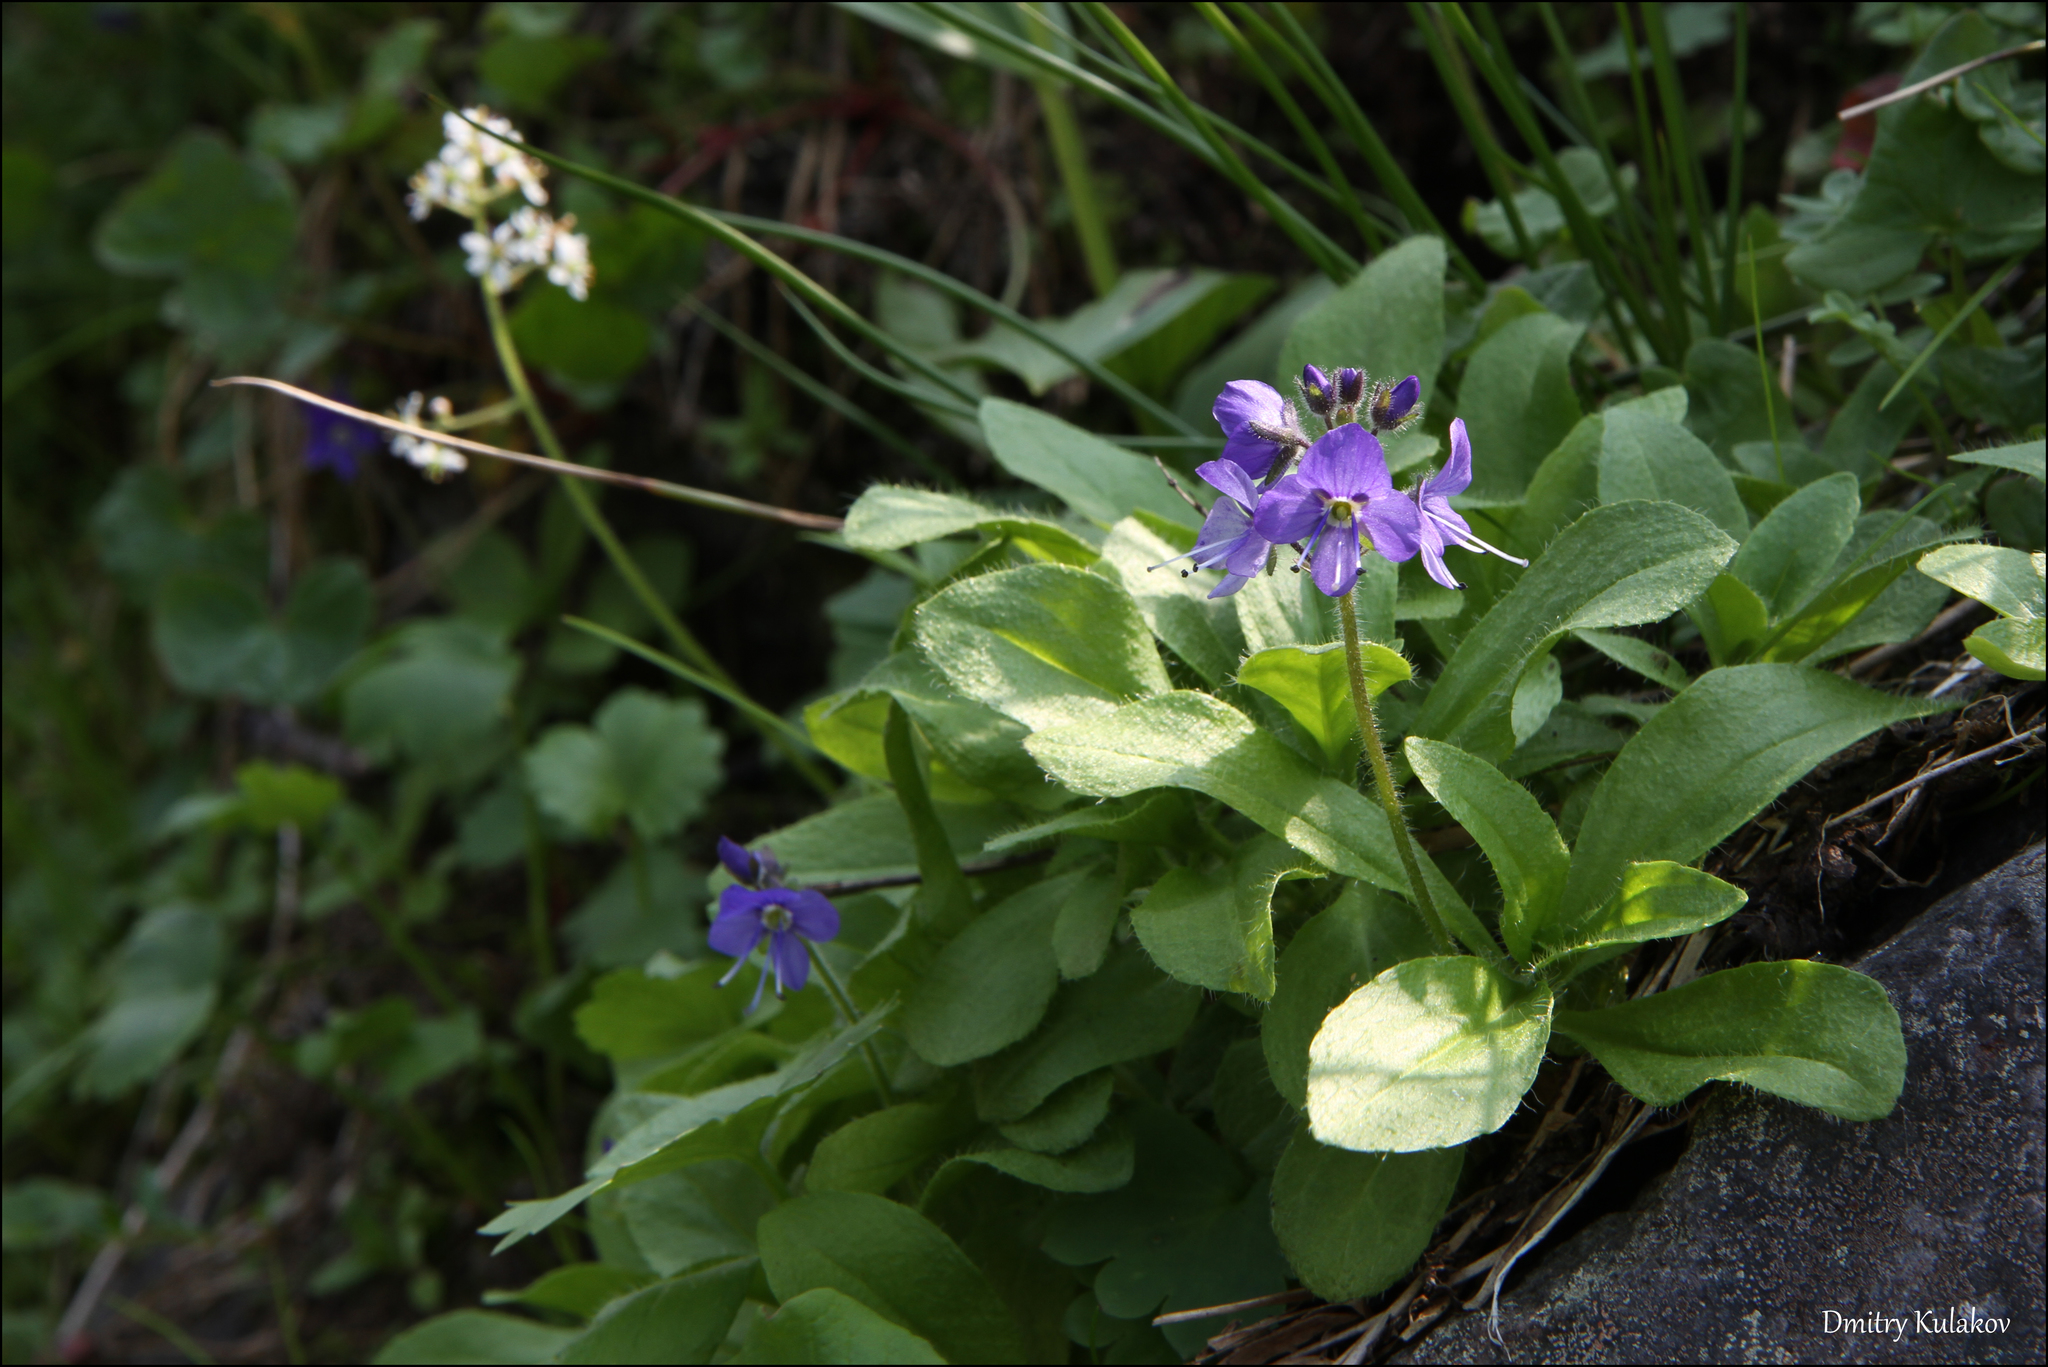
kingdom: Plantae
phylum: Tracheophyta
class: Magnoliopsida
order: Lamiales
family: Plantaginaceae
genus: Veronica
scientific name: Veronica grandiflora
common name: Large-flower speedwell
